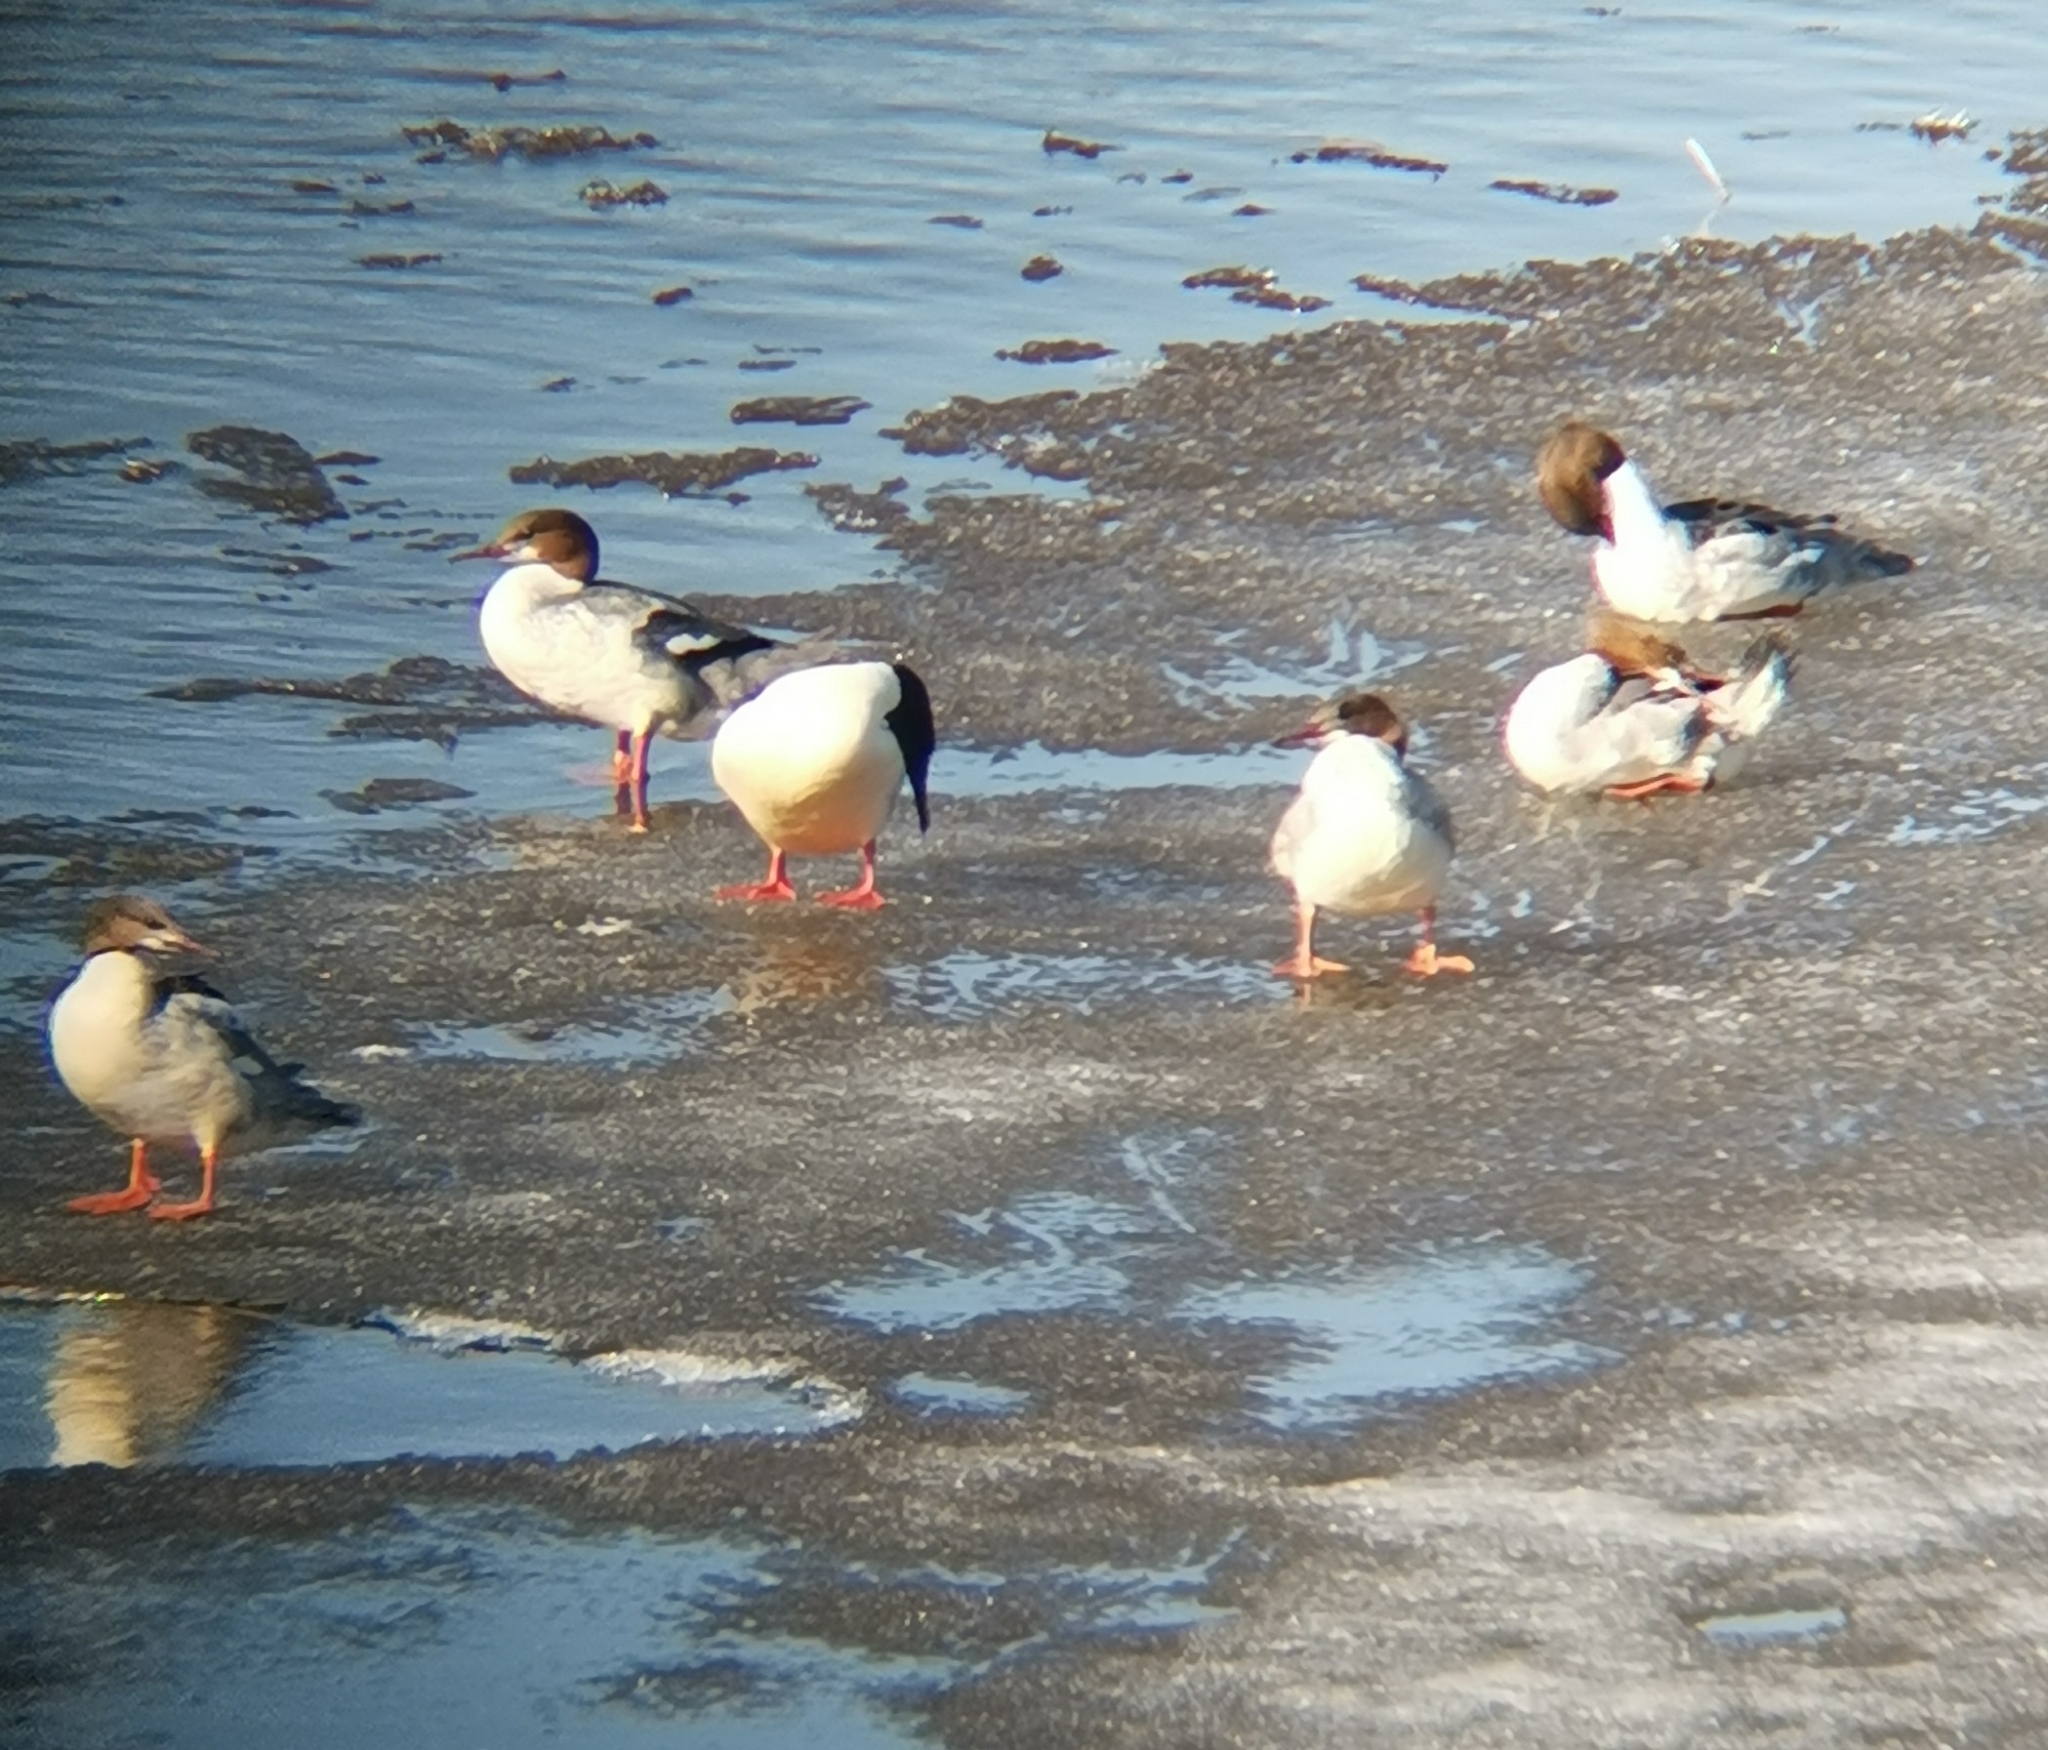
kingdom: Animalia
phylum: Chordata
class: Aves
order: Anseriformes
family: Anatidae
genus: Mergus
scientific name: Mergus merganser
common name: Common merganser
